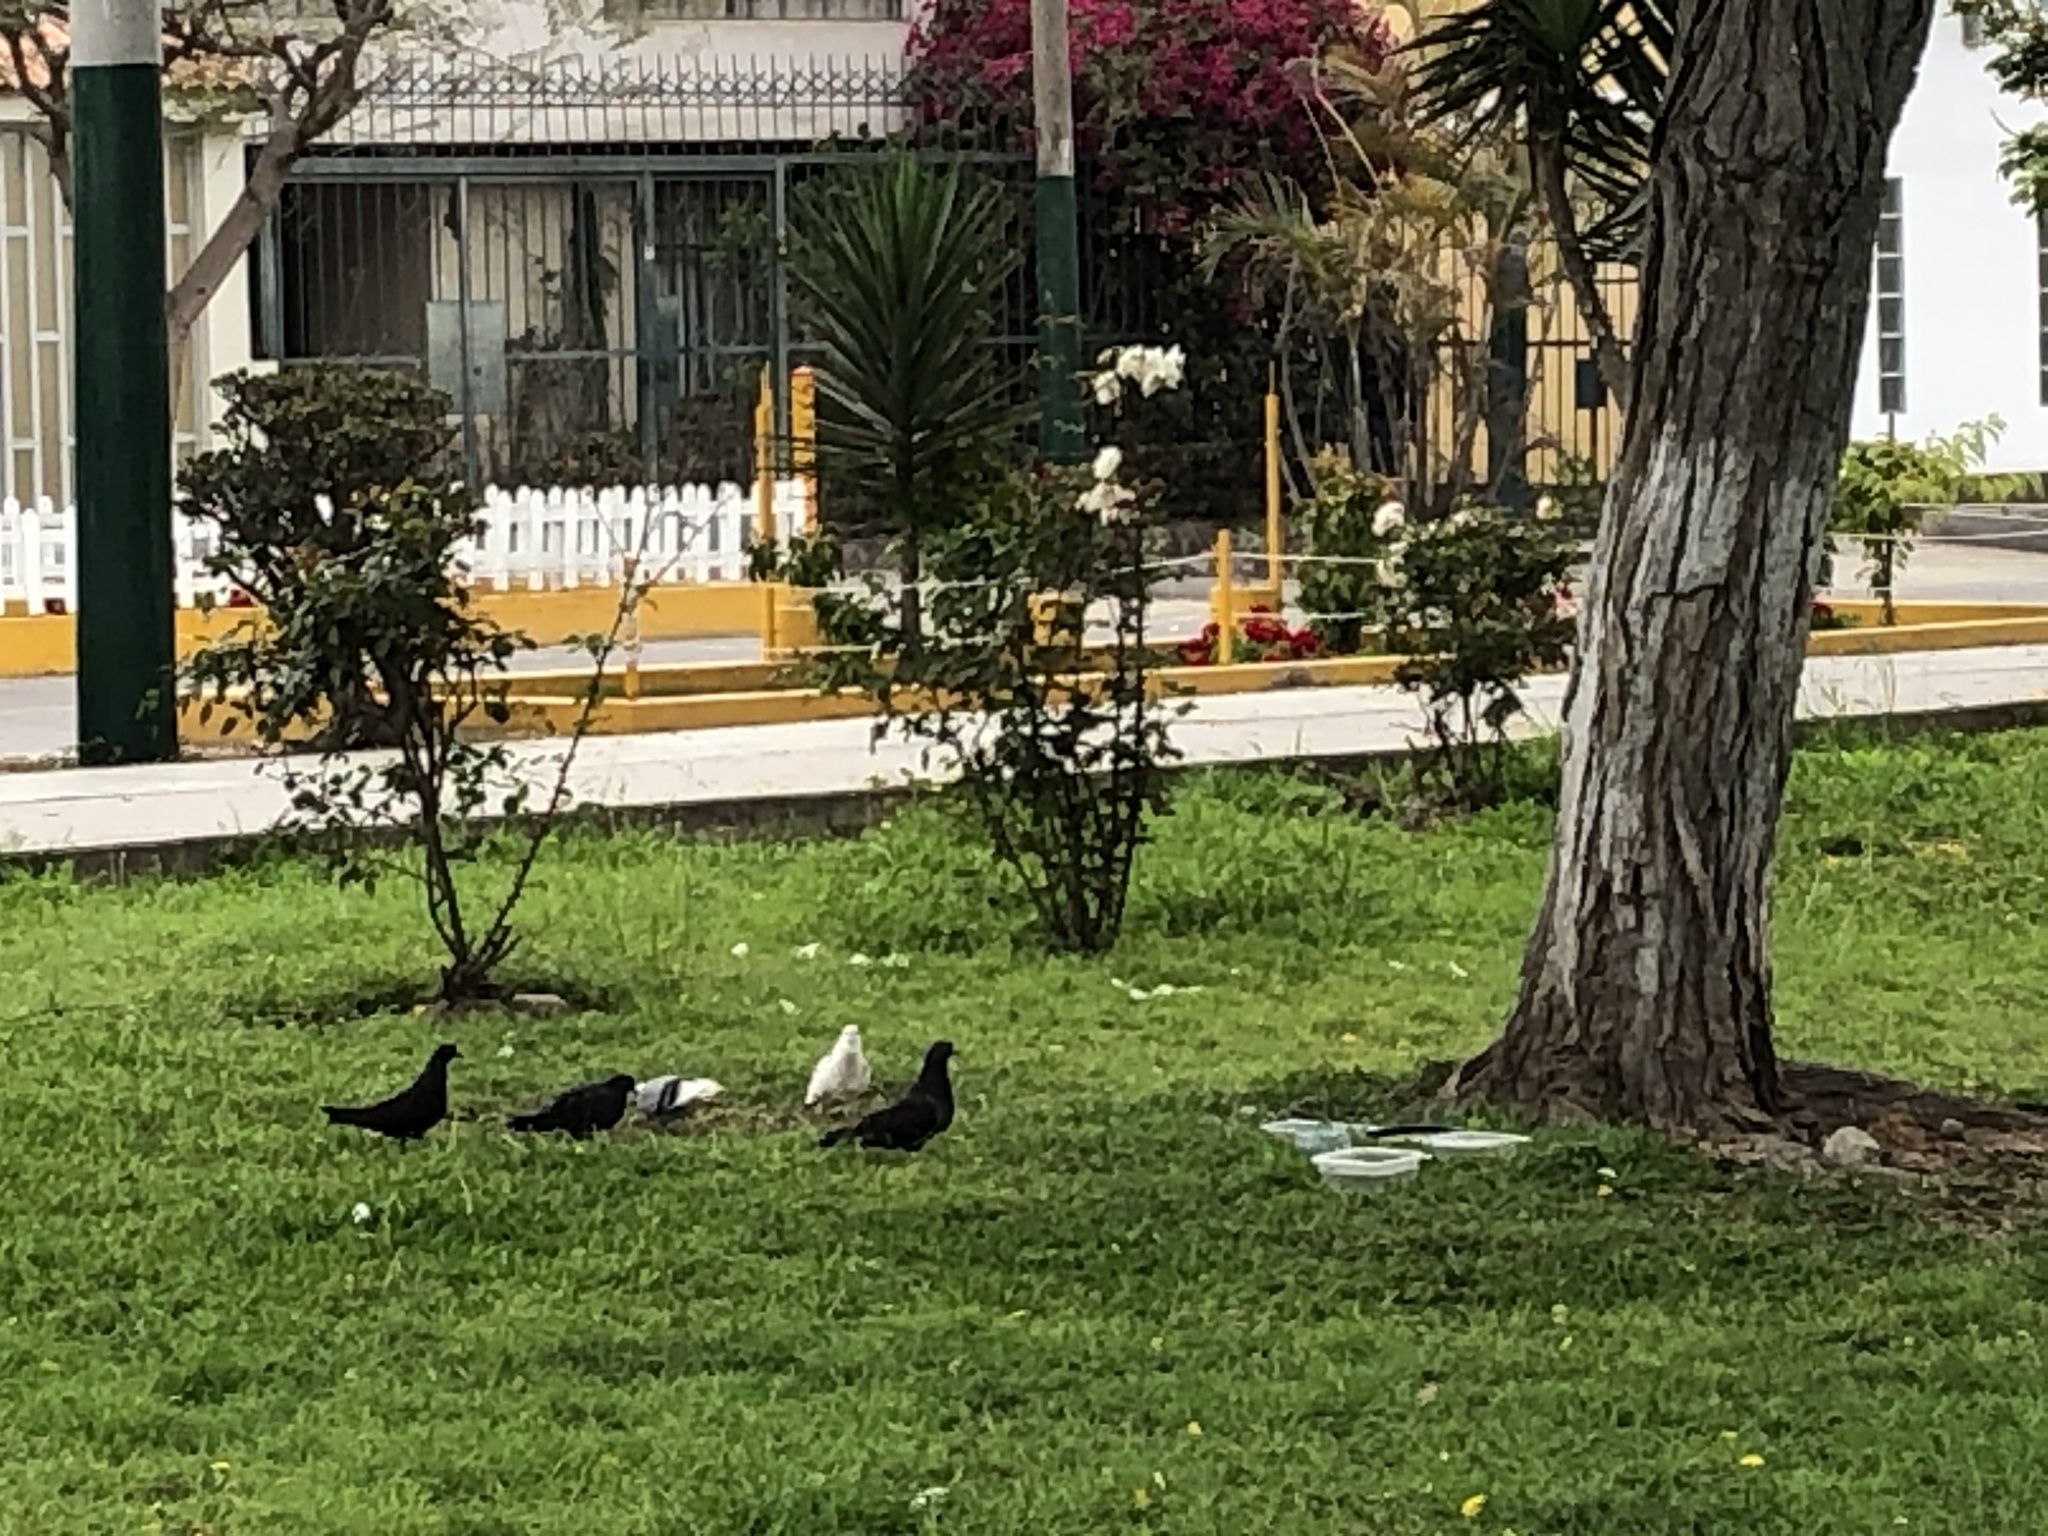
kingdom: Animalia
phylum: Chordata
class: Aves
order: Columbiformes
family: Columbidae
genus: Columba
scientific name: Columba livia
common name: Rock pigeon
